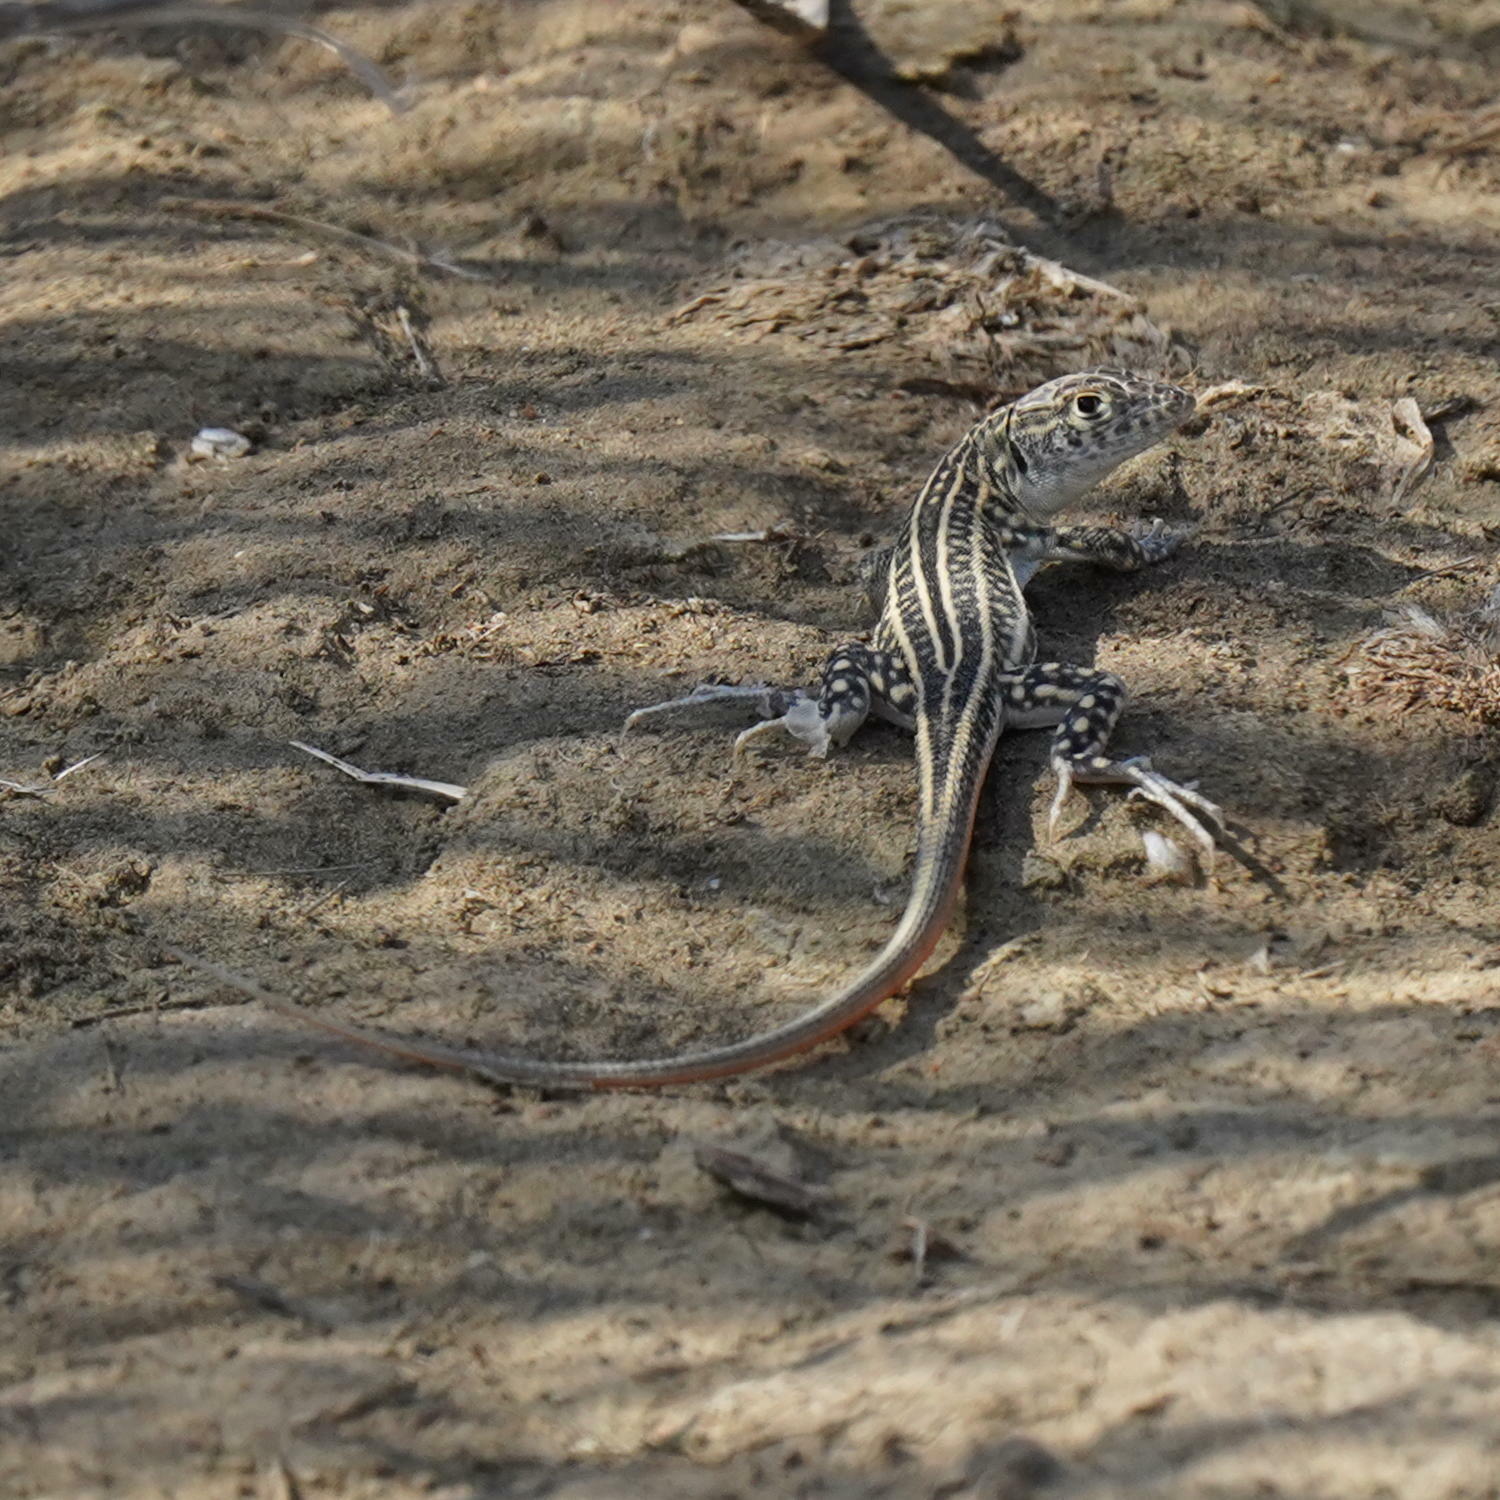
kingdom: Animalia
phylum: Chordata
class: Squamata
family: Lacertidae
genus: Acanthodactylus
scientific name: Acanthodactylus schreiberi
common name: Schreiber's fringe-fingered lizard
